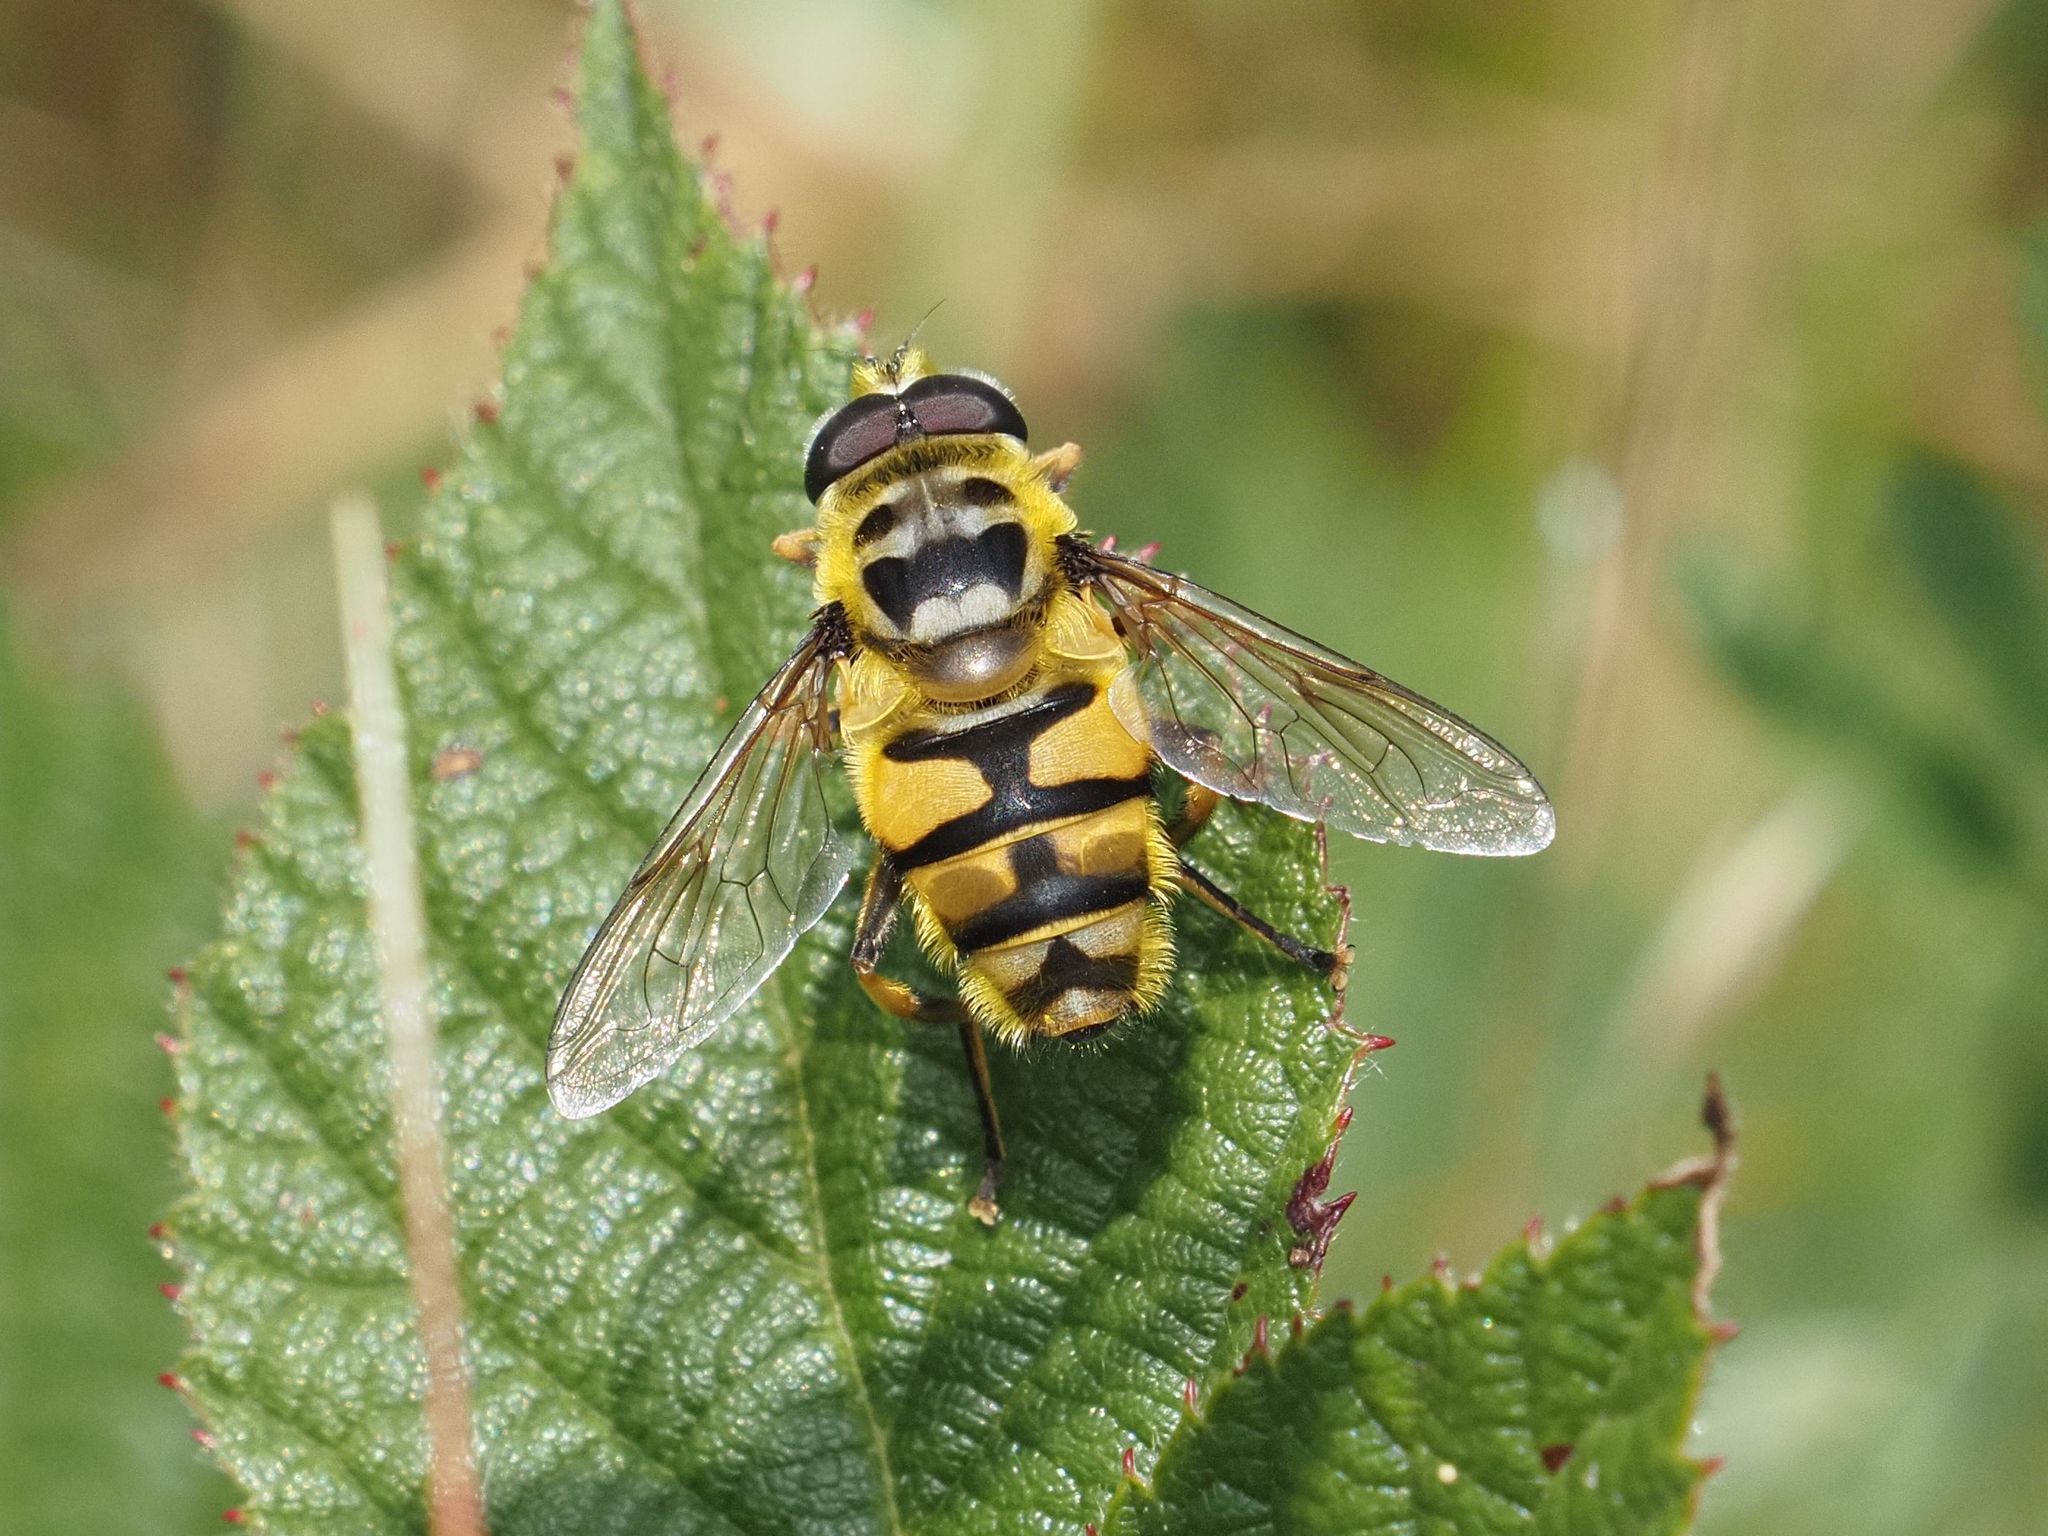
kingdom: Animalia
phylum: Arthropoda
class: Insecta
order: Diptera
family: Syrphidae
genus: Myathropa
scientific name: Myathropa florea
